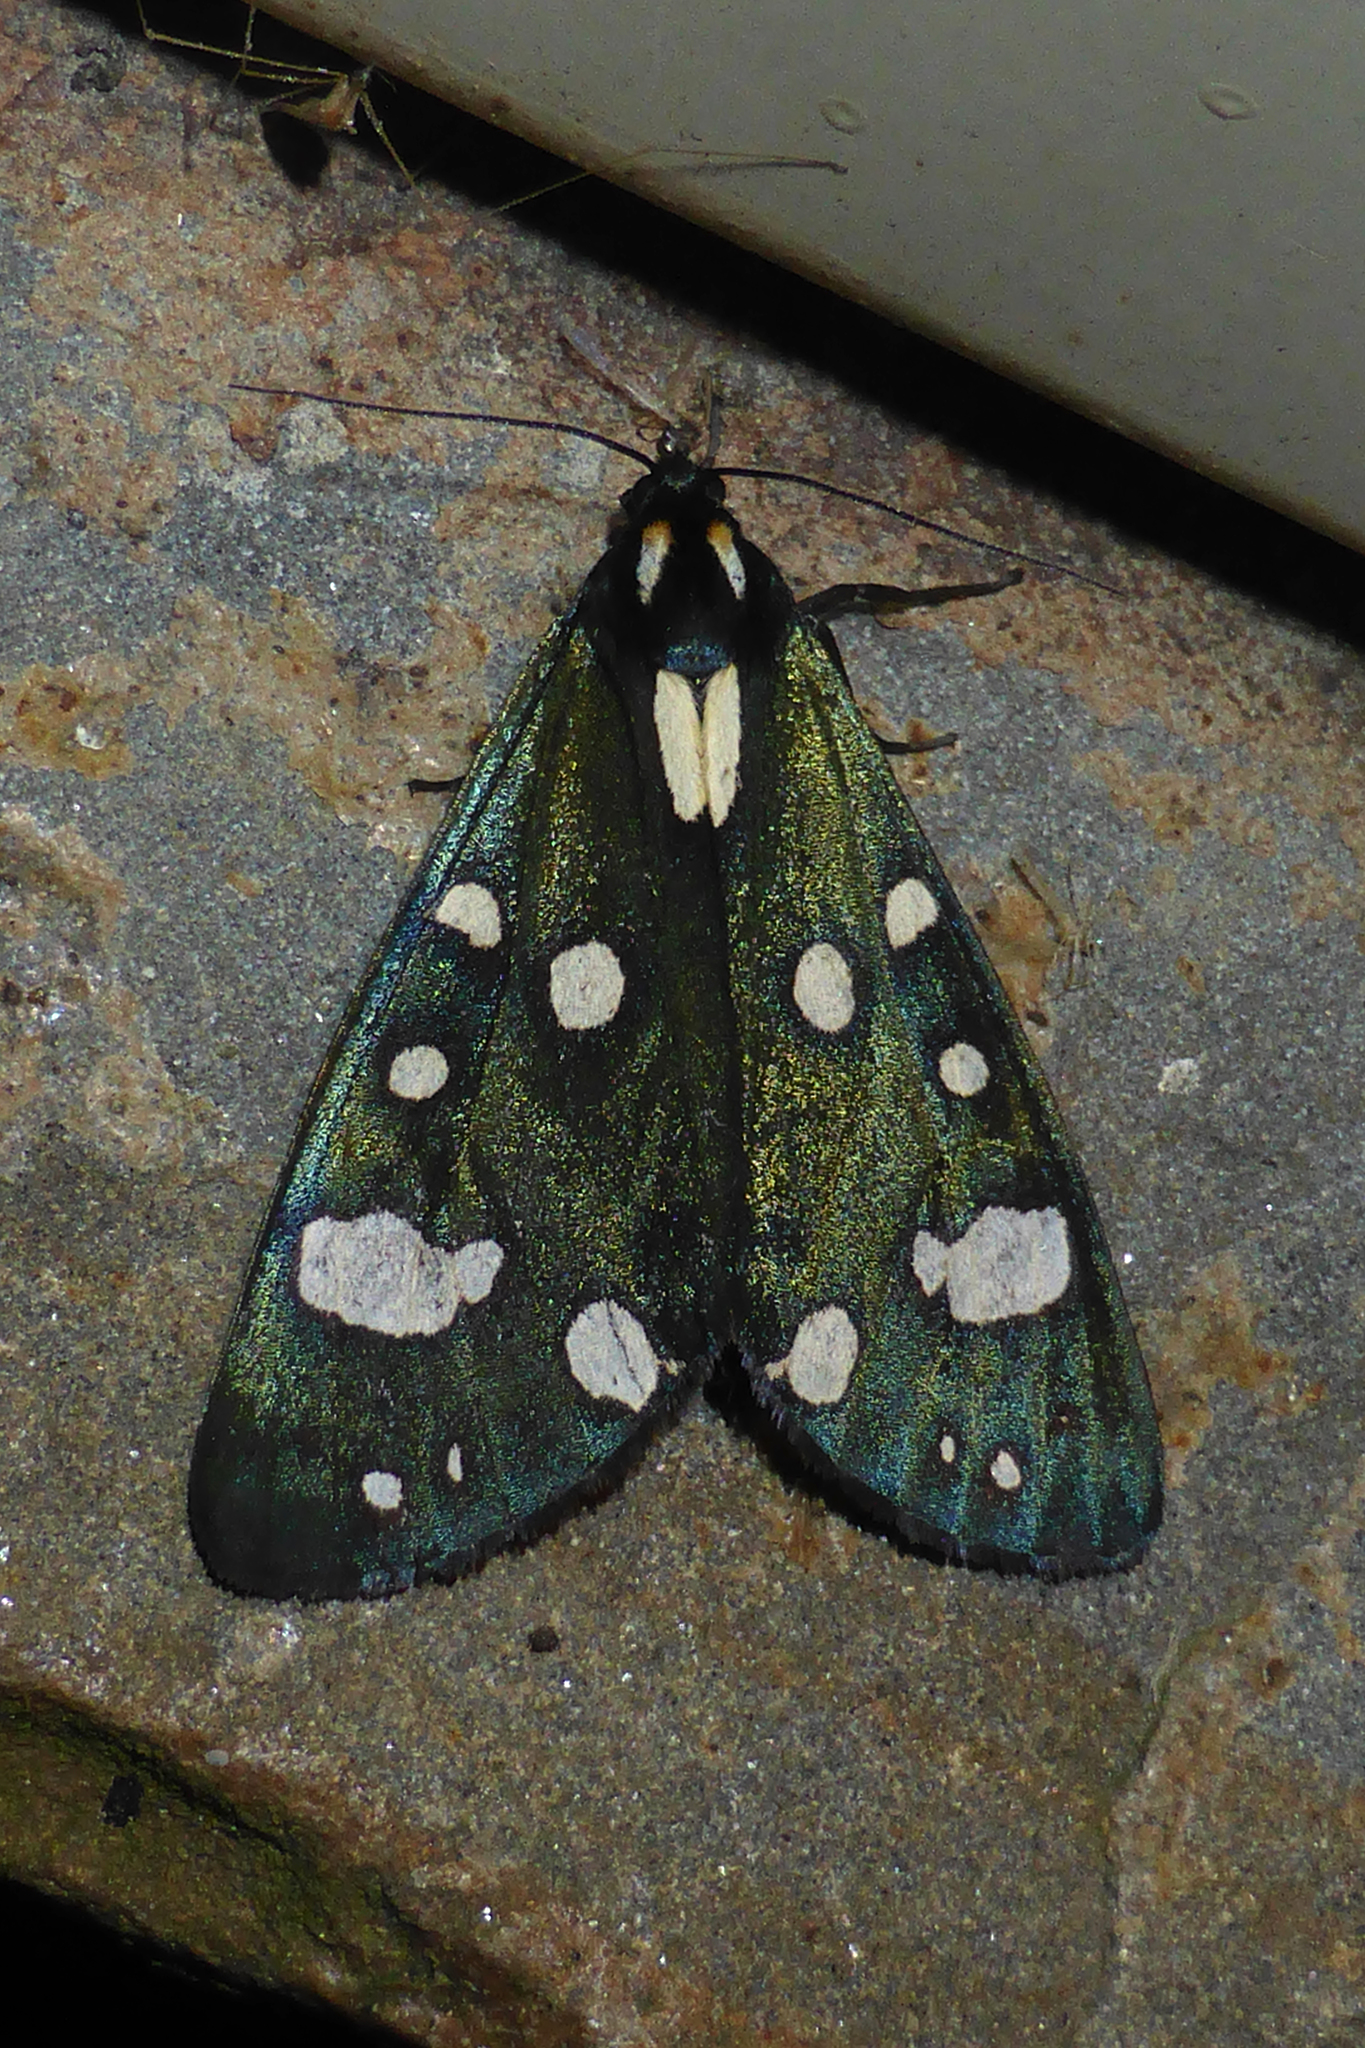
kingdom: Animalia
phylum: Arthropoda
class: Insecta
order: Lepidoptera
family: Erebidae
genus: Callimorpha
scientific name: Callimorpha dominula
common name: Scarlet tiger
